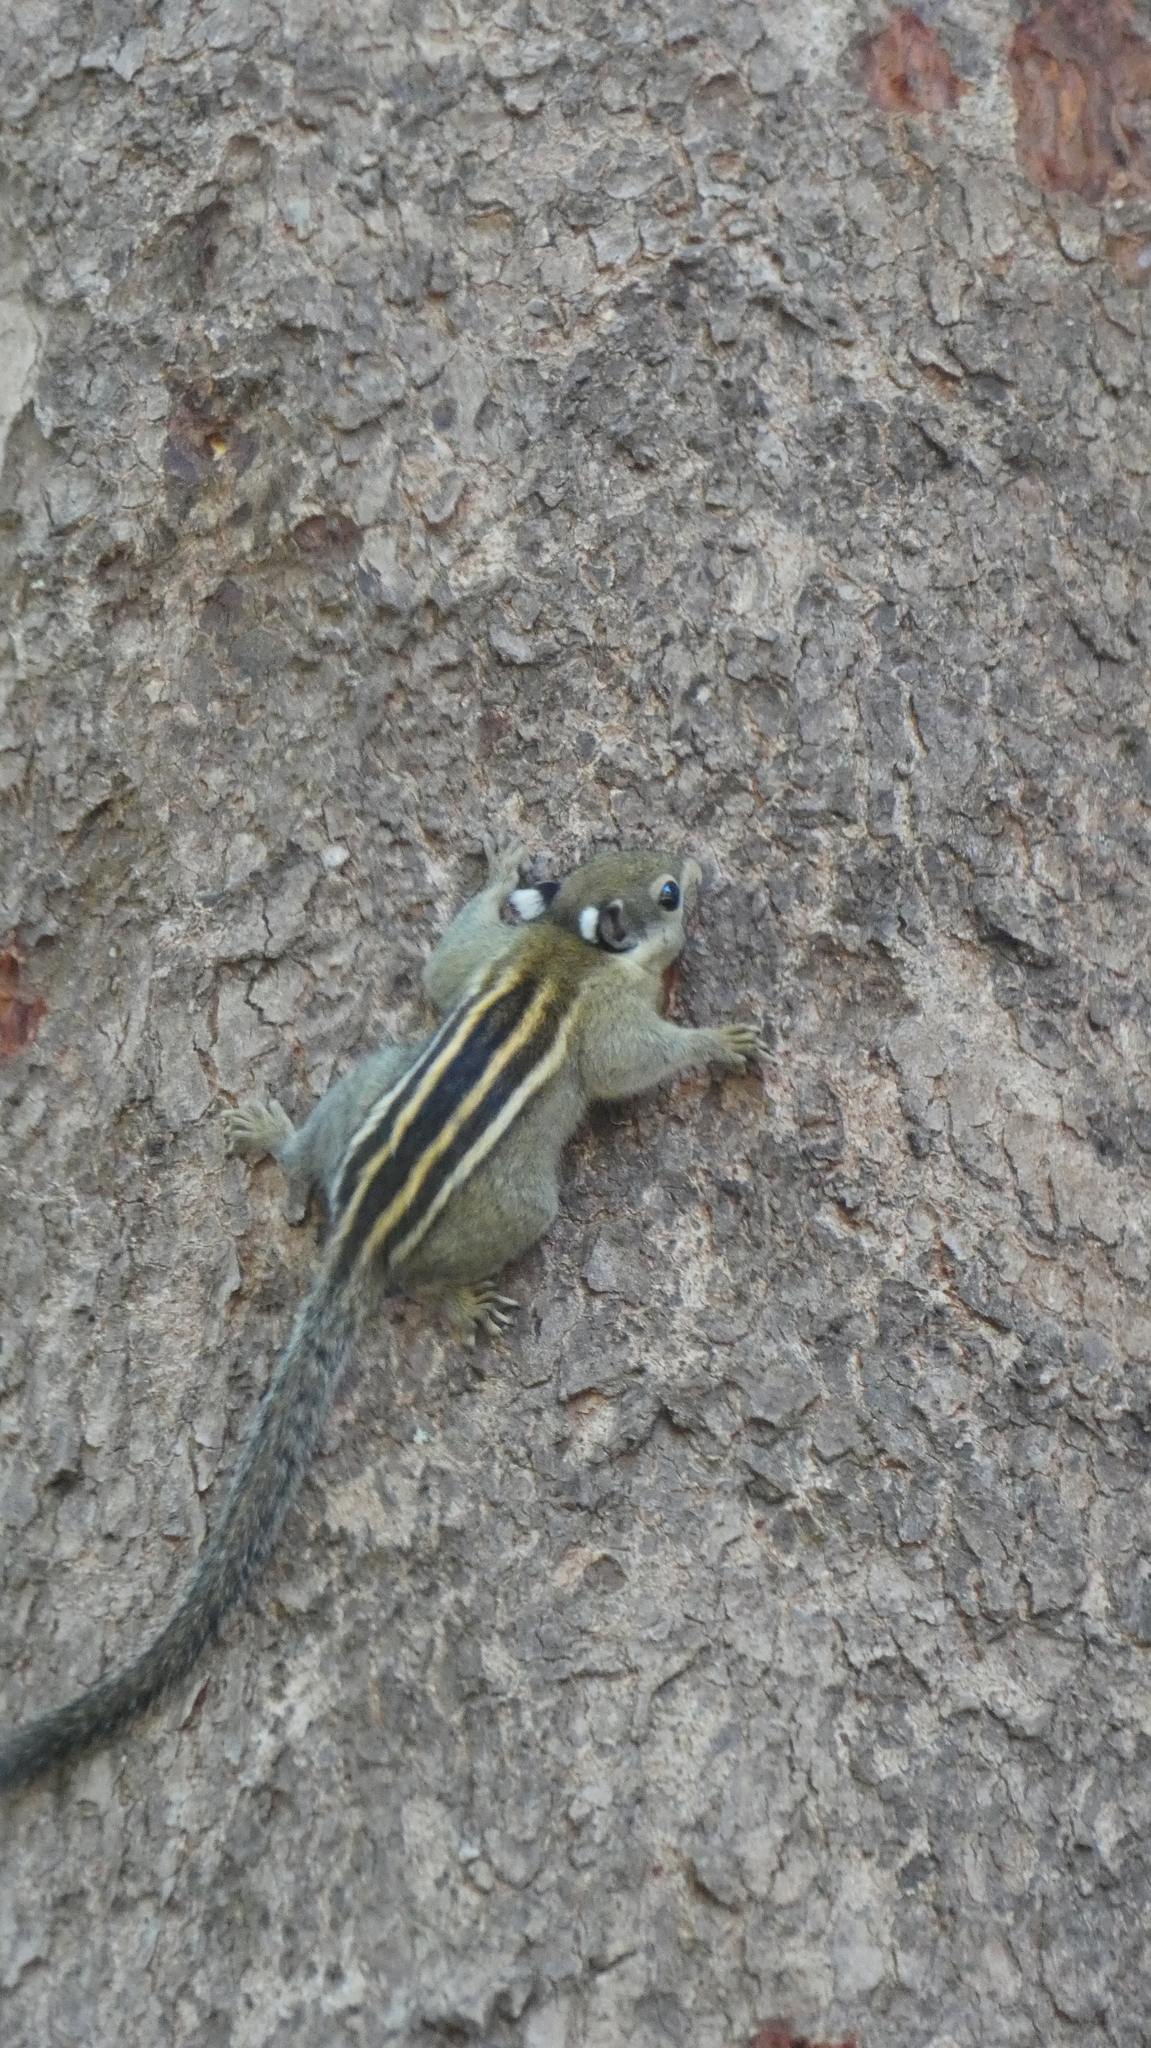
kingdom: Animalia
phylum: Chordata
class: Mammalia
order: Rodentia
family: Sciuridae
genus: Tamiops
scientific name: Tamiops rodolphii
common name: Cambodian striped squirrel
